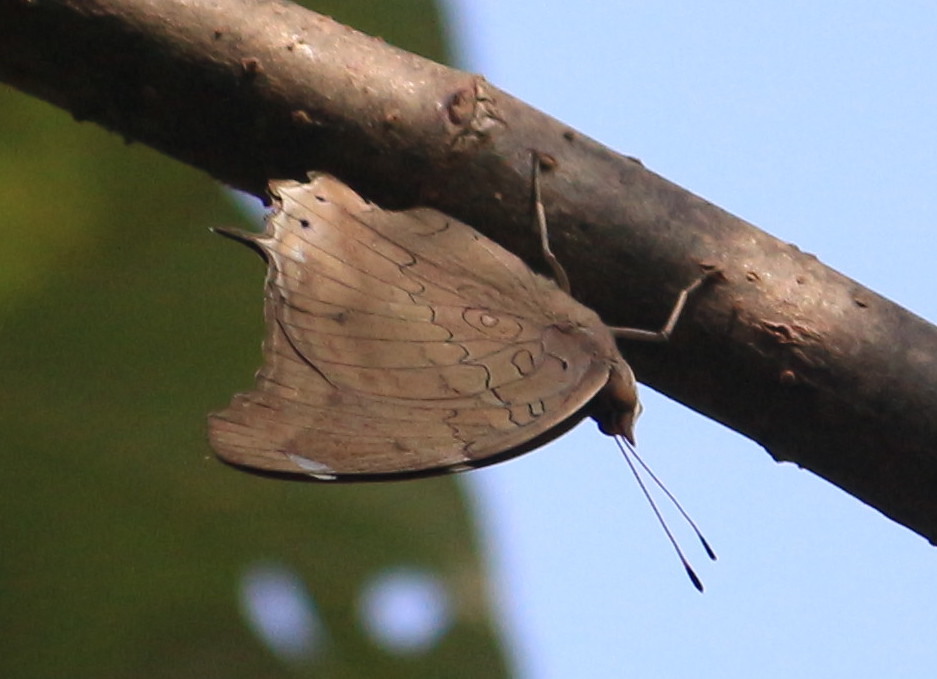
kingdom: Animalia
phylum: Arthropoda
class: Insecta
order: Lepidoptera
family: Nymphalidae
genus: Coea
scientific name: Coea acheronta
